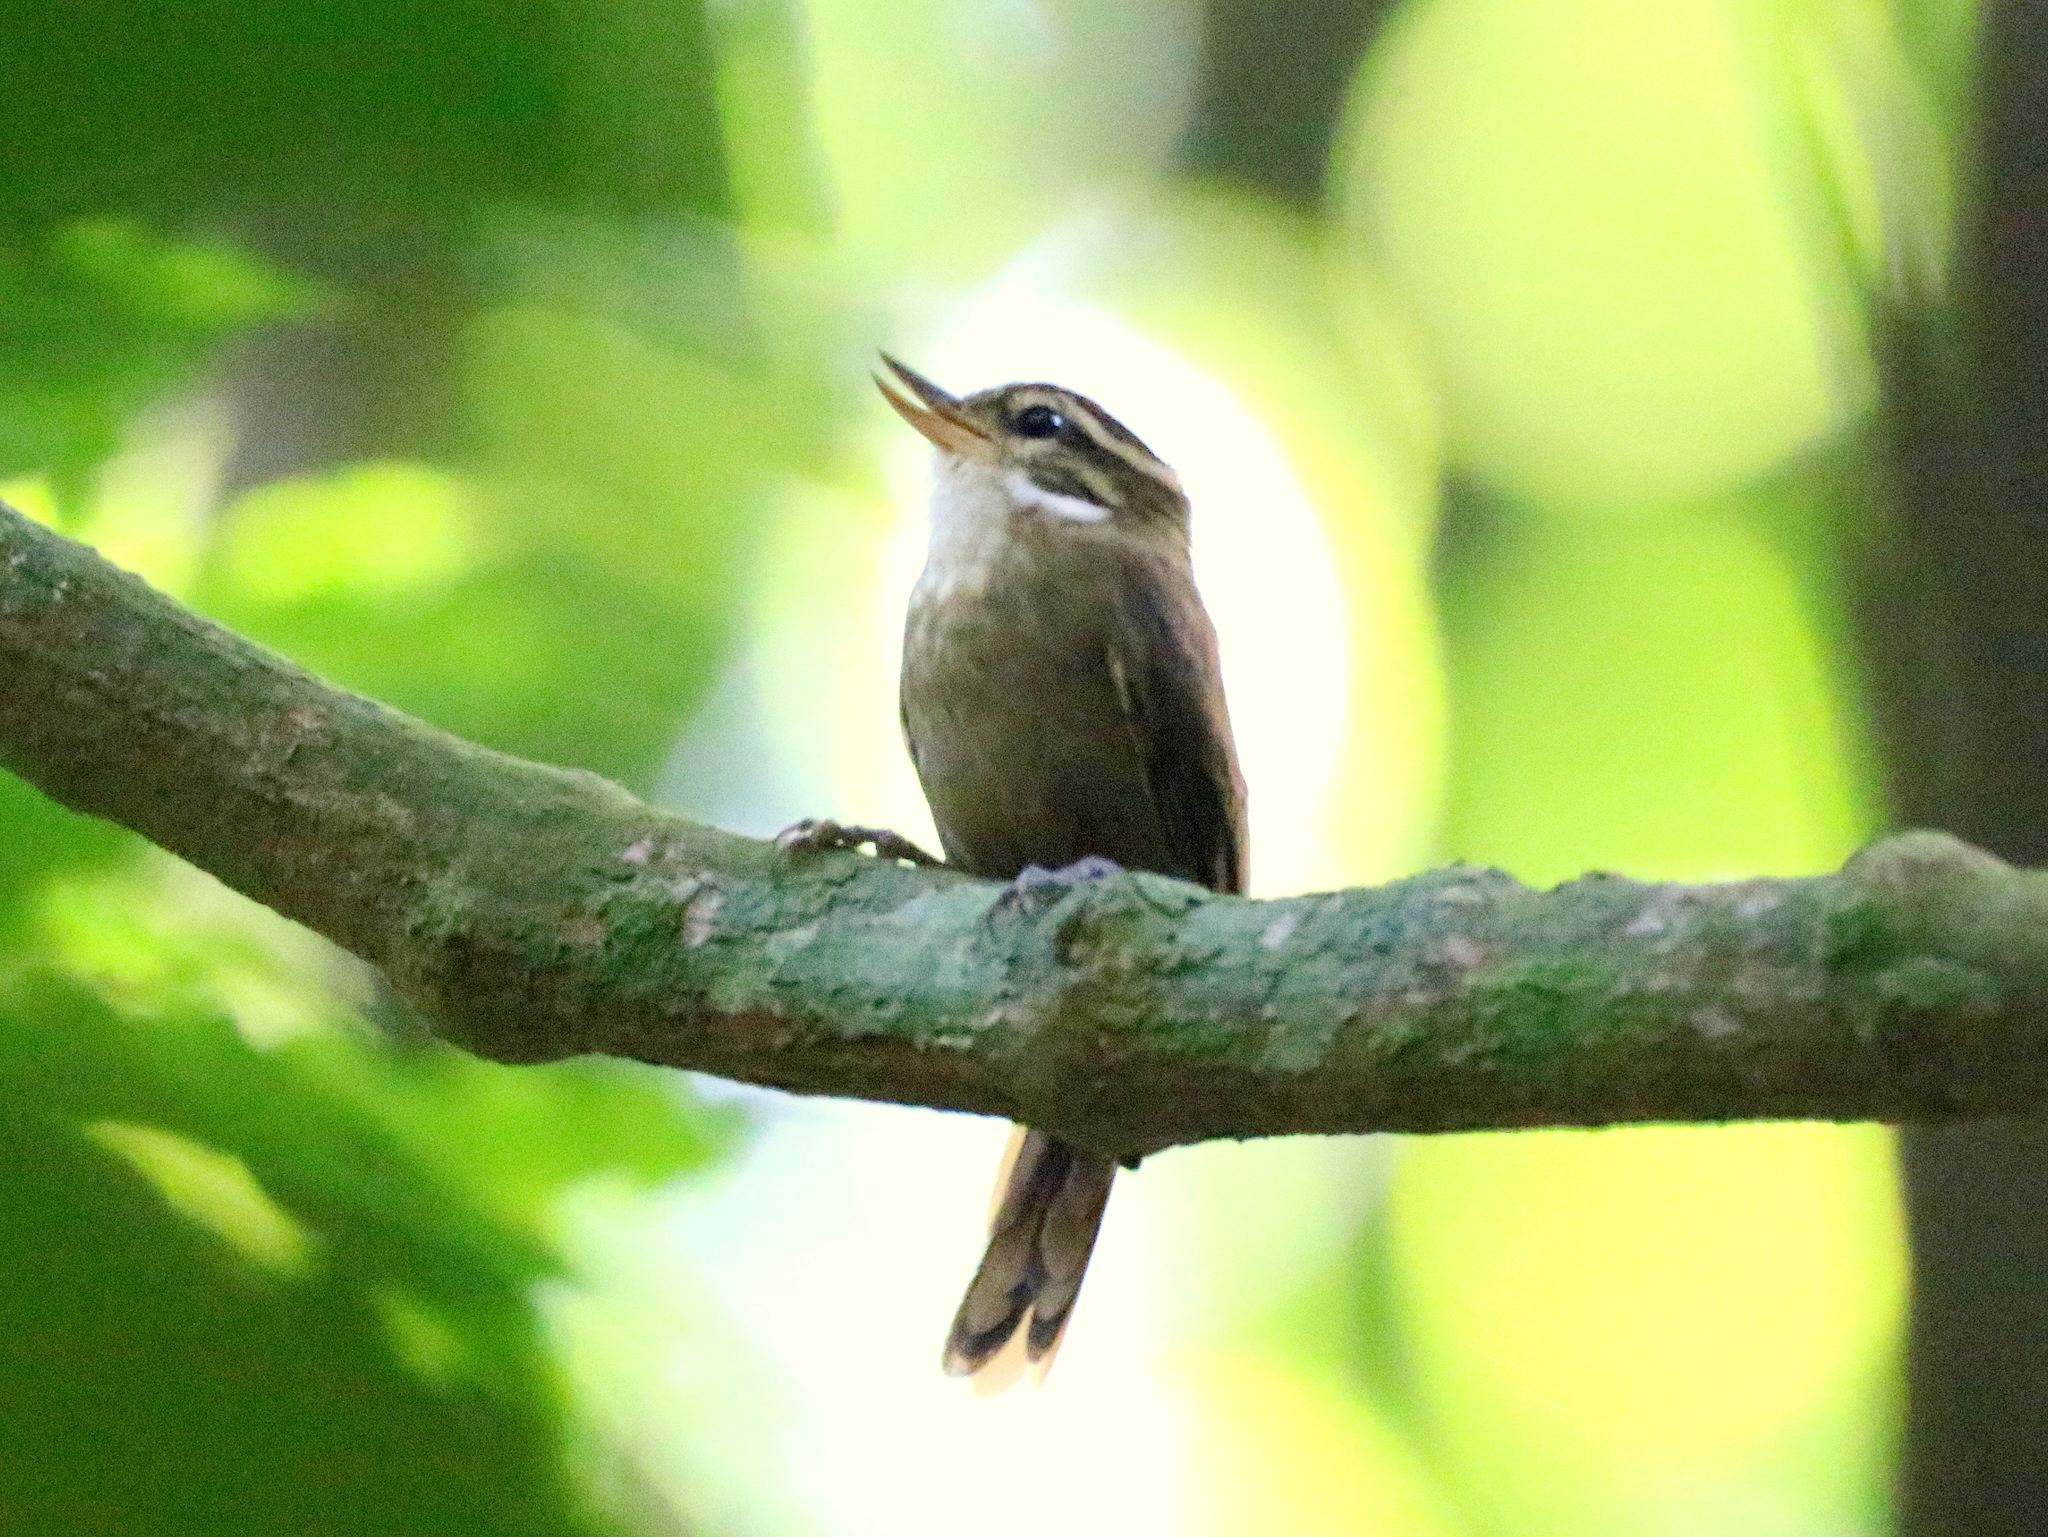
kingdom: Animalia
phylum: Chordata
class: Aves
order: Passeriformes
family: Furnariidae
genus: Xenops
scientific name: Xenops minutus
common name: Plain xenops
